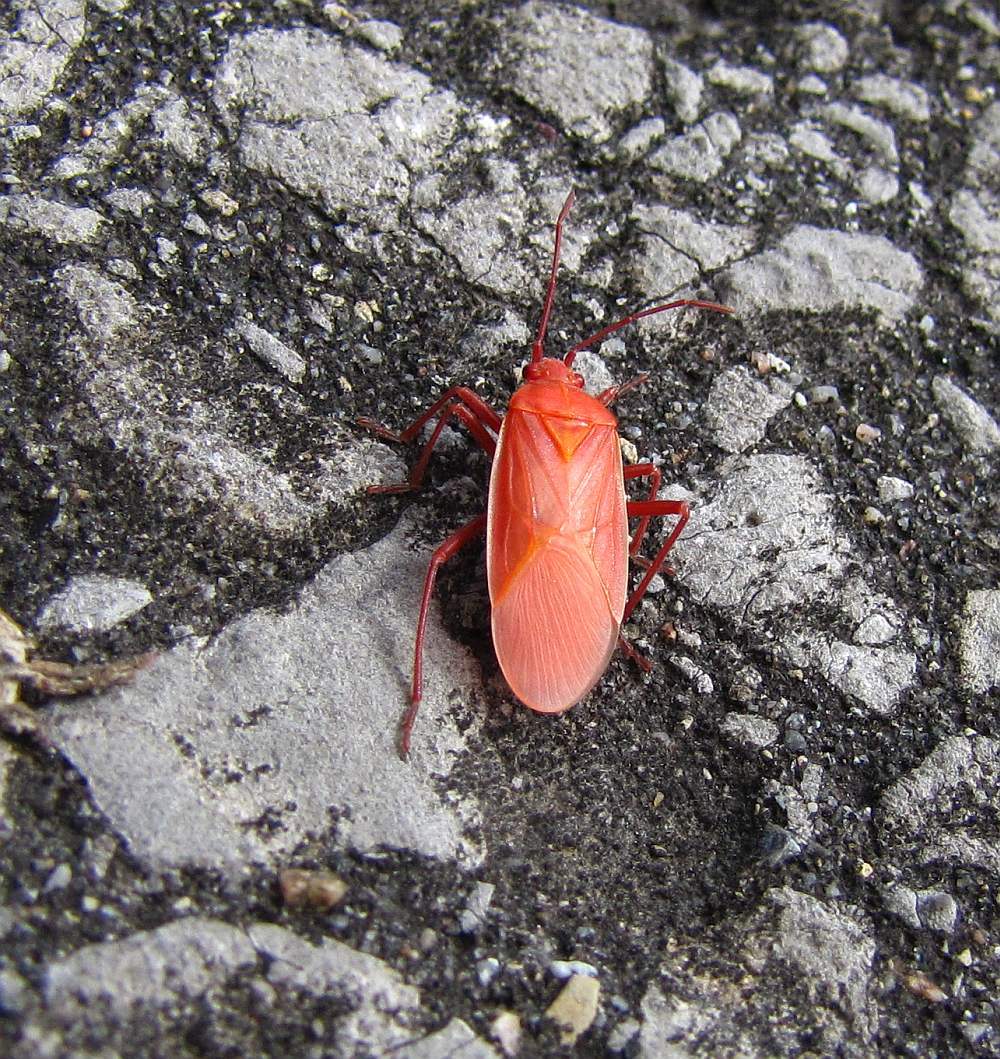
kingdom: Animalia
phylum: Arthropoda
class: Insecta
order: Hemiptera
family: Rhopalidae
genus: Boisea
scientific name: Boisea trivittata
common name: Boxelder bug
